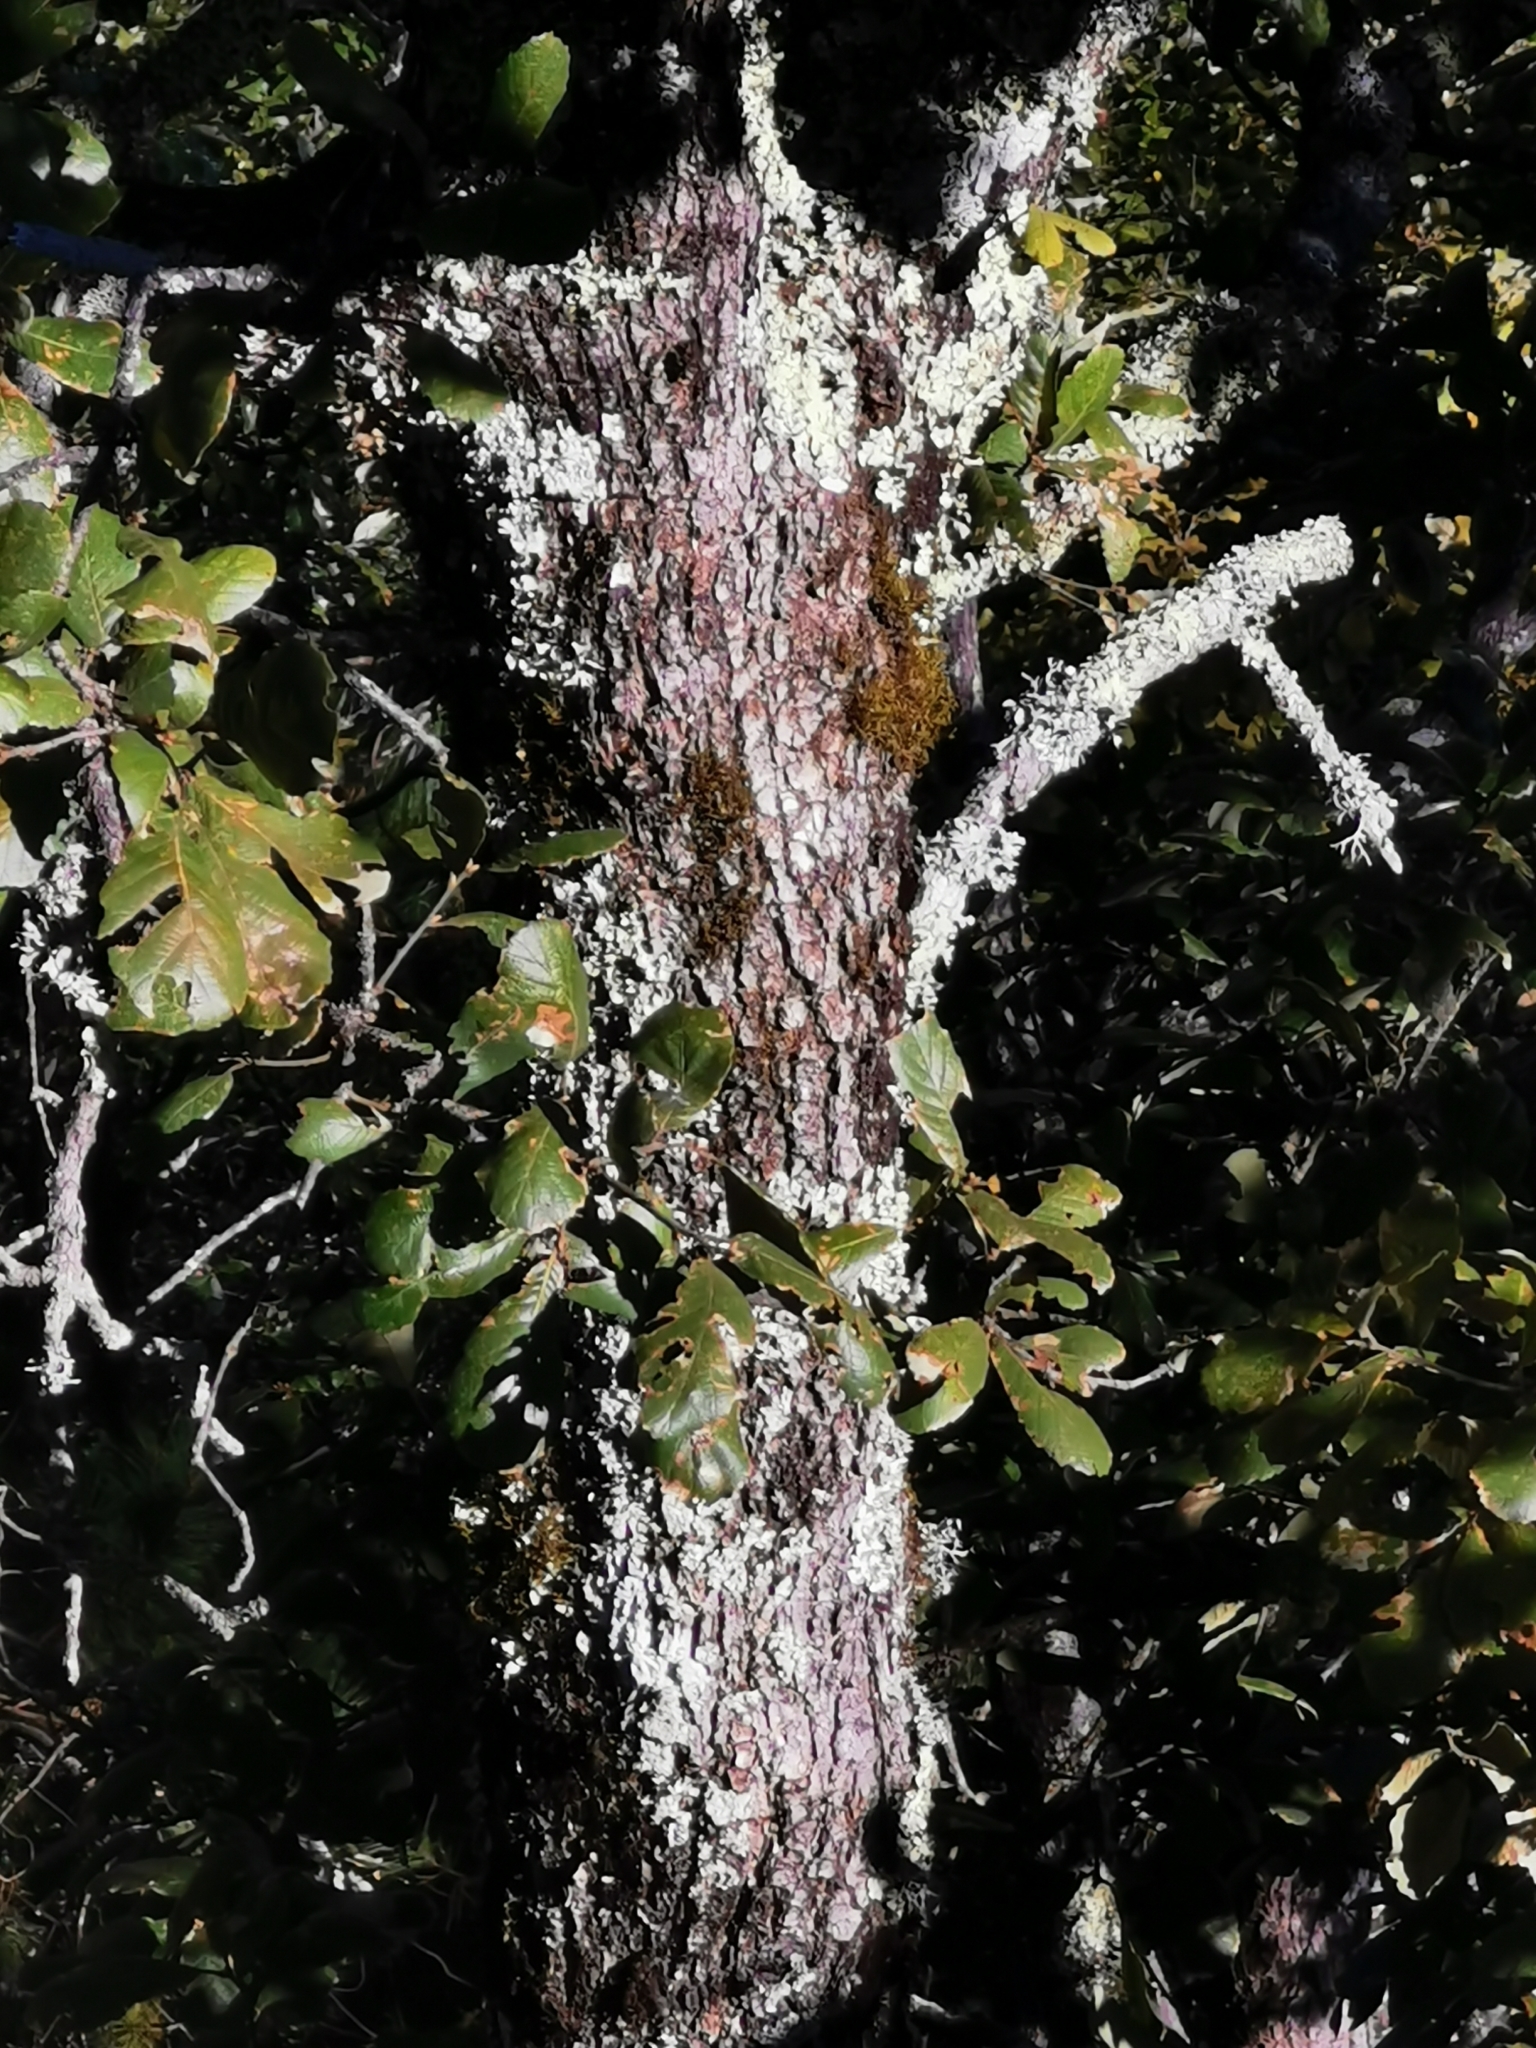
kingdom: Plantae
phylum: Tracheophyta
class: Magnoliopsida
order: Fagales
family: Fagaceae
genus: Quercus
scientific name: Quercus rugosa
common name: Netleaf oak
